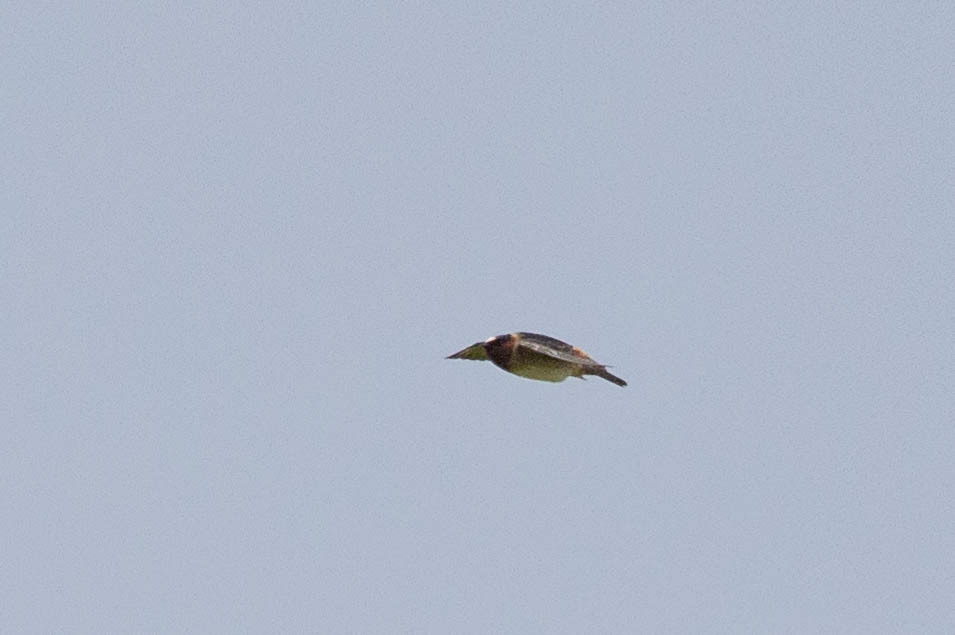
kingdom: Animalia
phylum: Chordata
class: Aves
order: Passeriformes
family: Hirundinidae
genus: Petrochelidon
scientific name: Petrochelidon pyrrhonota
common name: American cliff swallow
